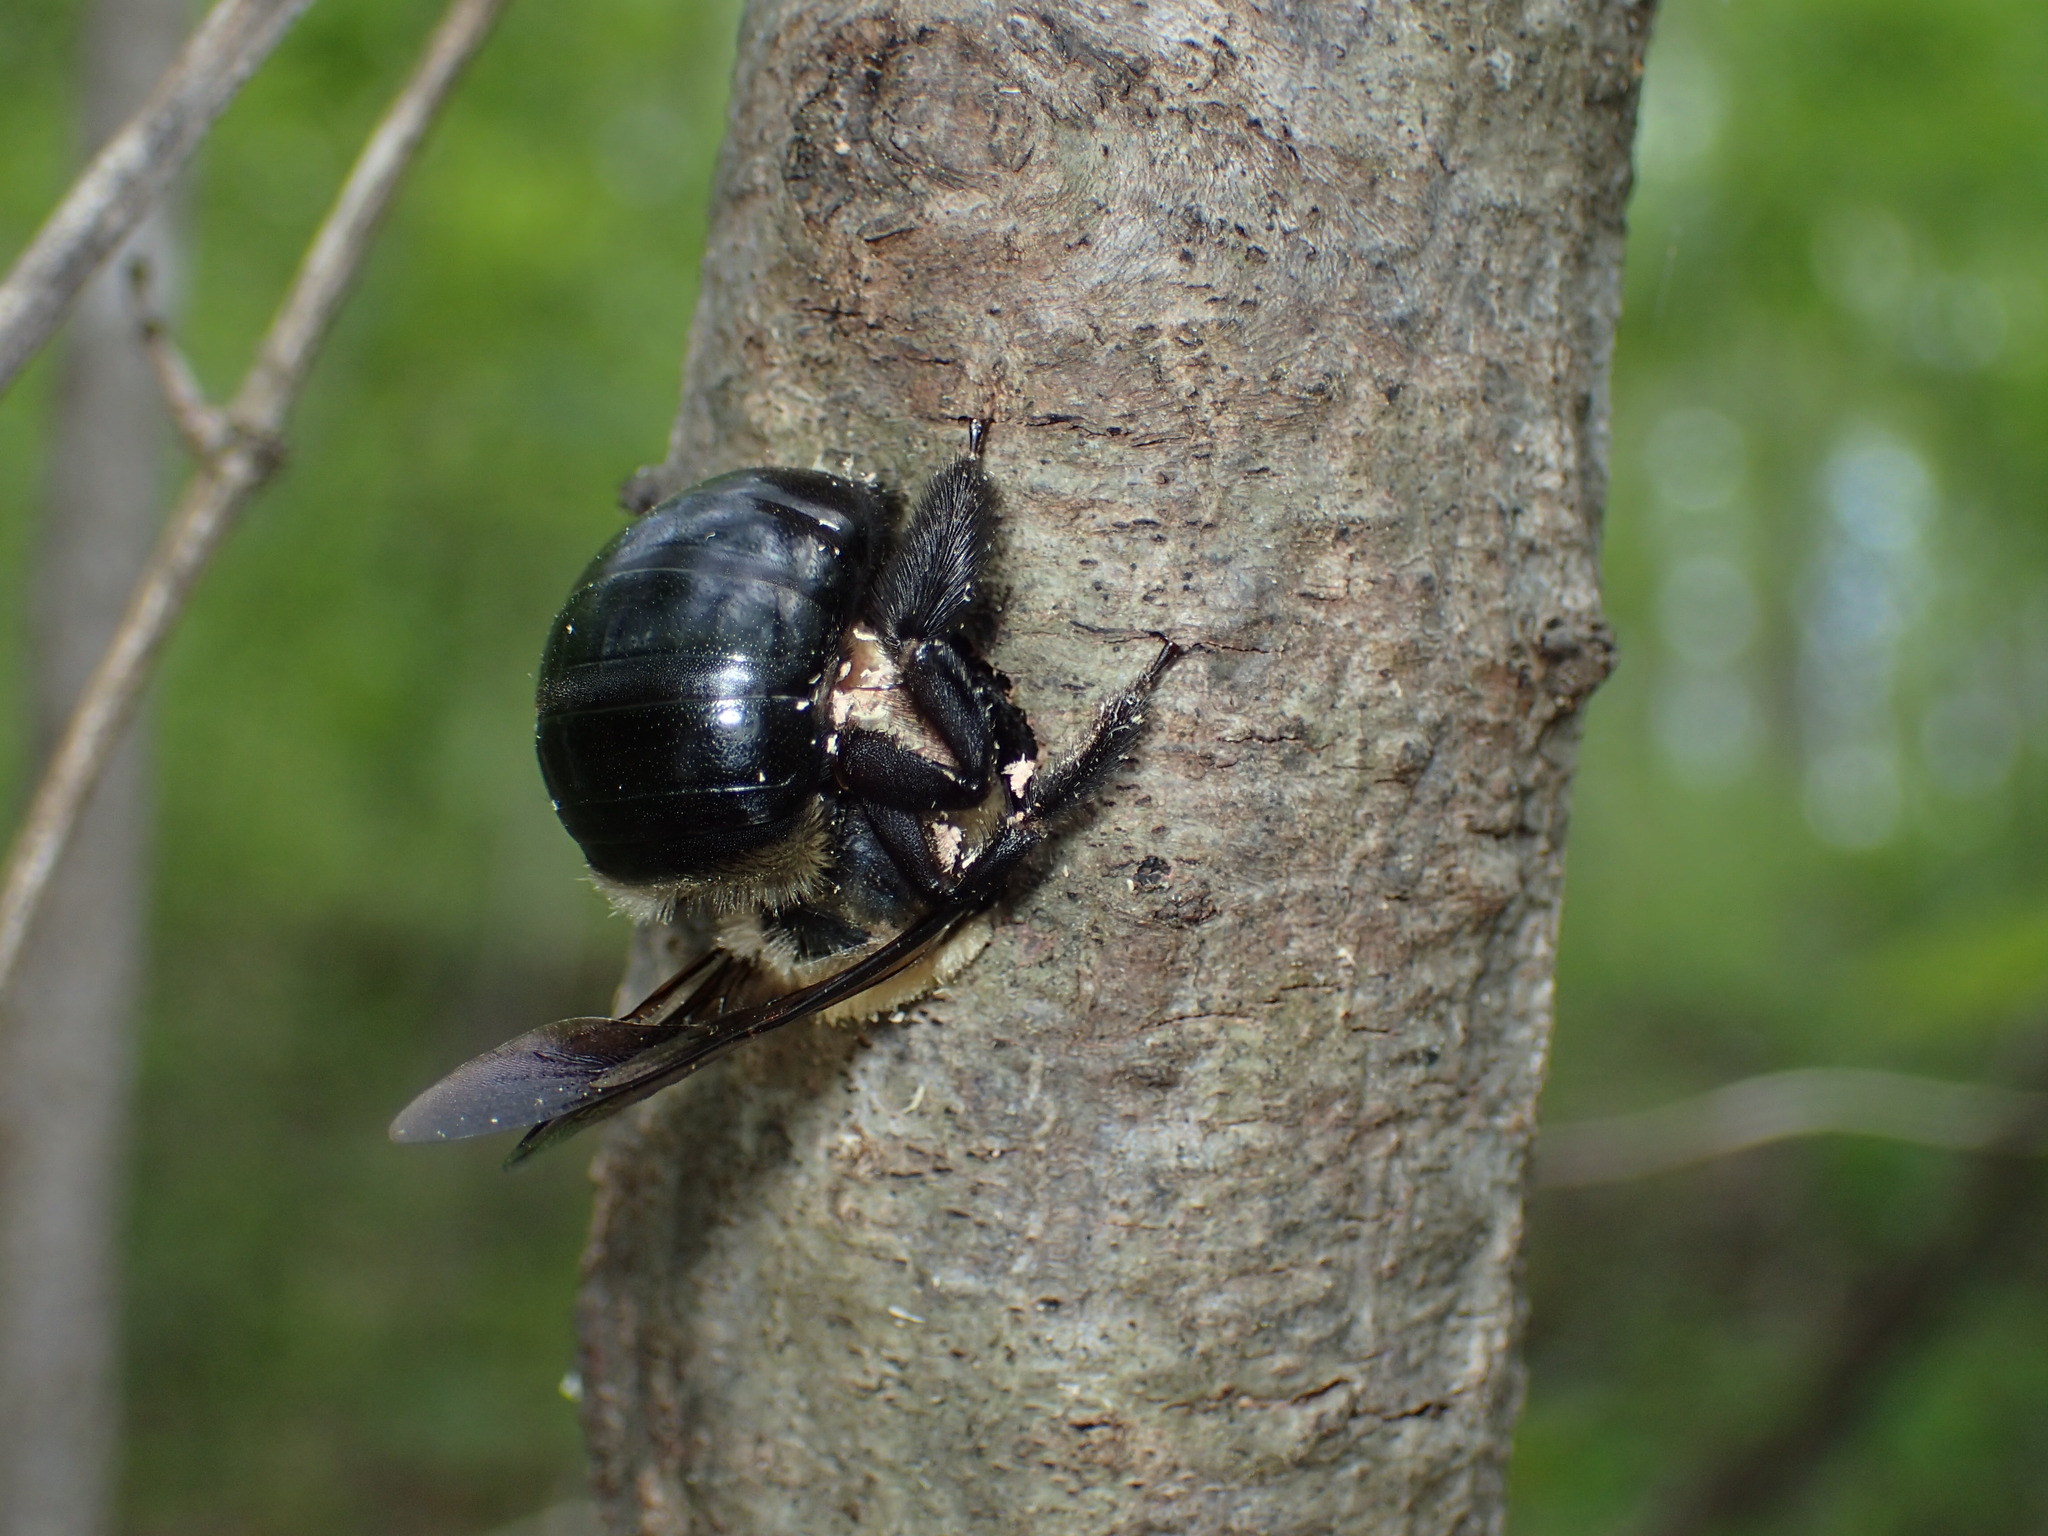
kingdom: Animalia
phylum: Arthropoda
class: Insecta
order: Hymenoptera
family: Apidae
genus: Xylocopa
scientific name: Xylocopa virginica
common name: Carpenter bee
